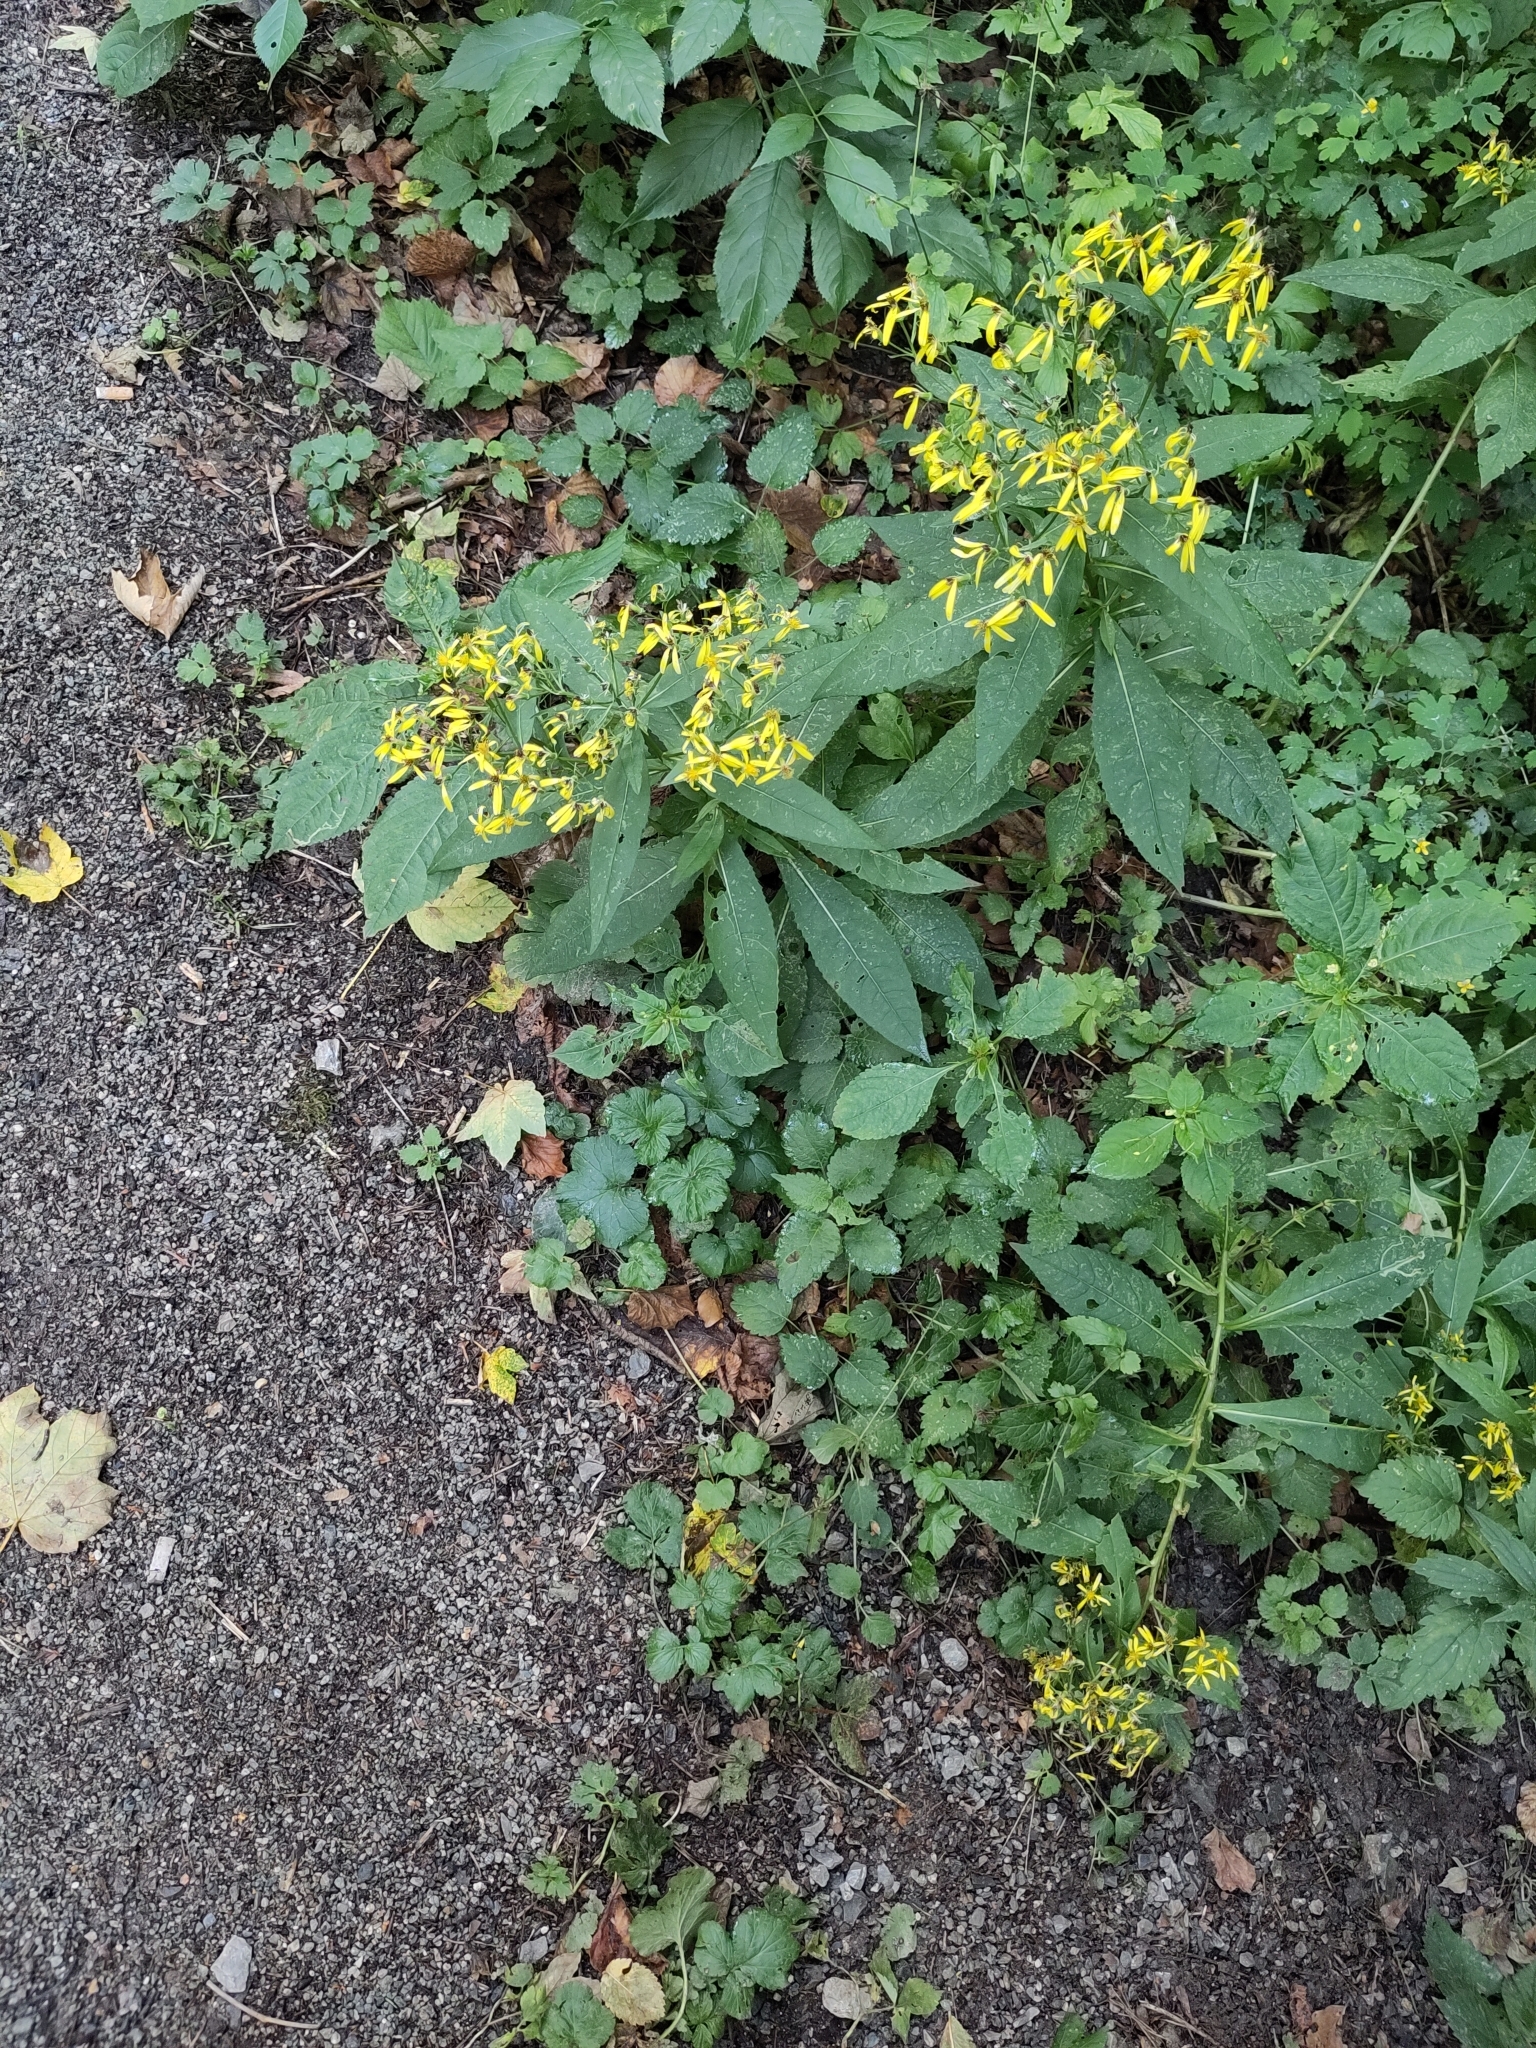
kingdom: Plantae
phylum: Tracheophyta
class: Magnoliopsida
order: Asterales
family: Asteraceae
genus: Senecio
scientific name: Senecio ovatus
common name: Wood ragwort
